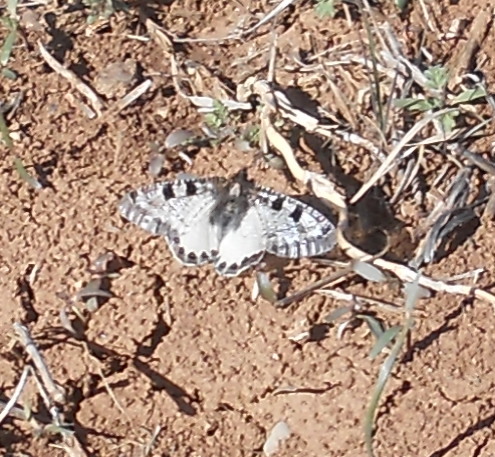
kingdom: Animalia
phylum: Arthropoda
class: Insecta
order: Lepidoptera
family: Papilionidae
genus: Archon
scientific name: Archon apollinus
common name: False apollo
